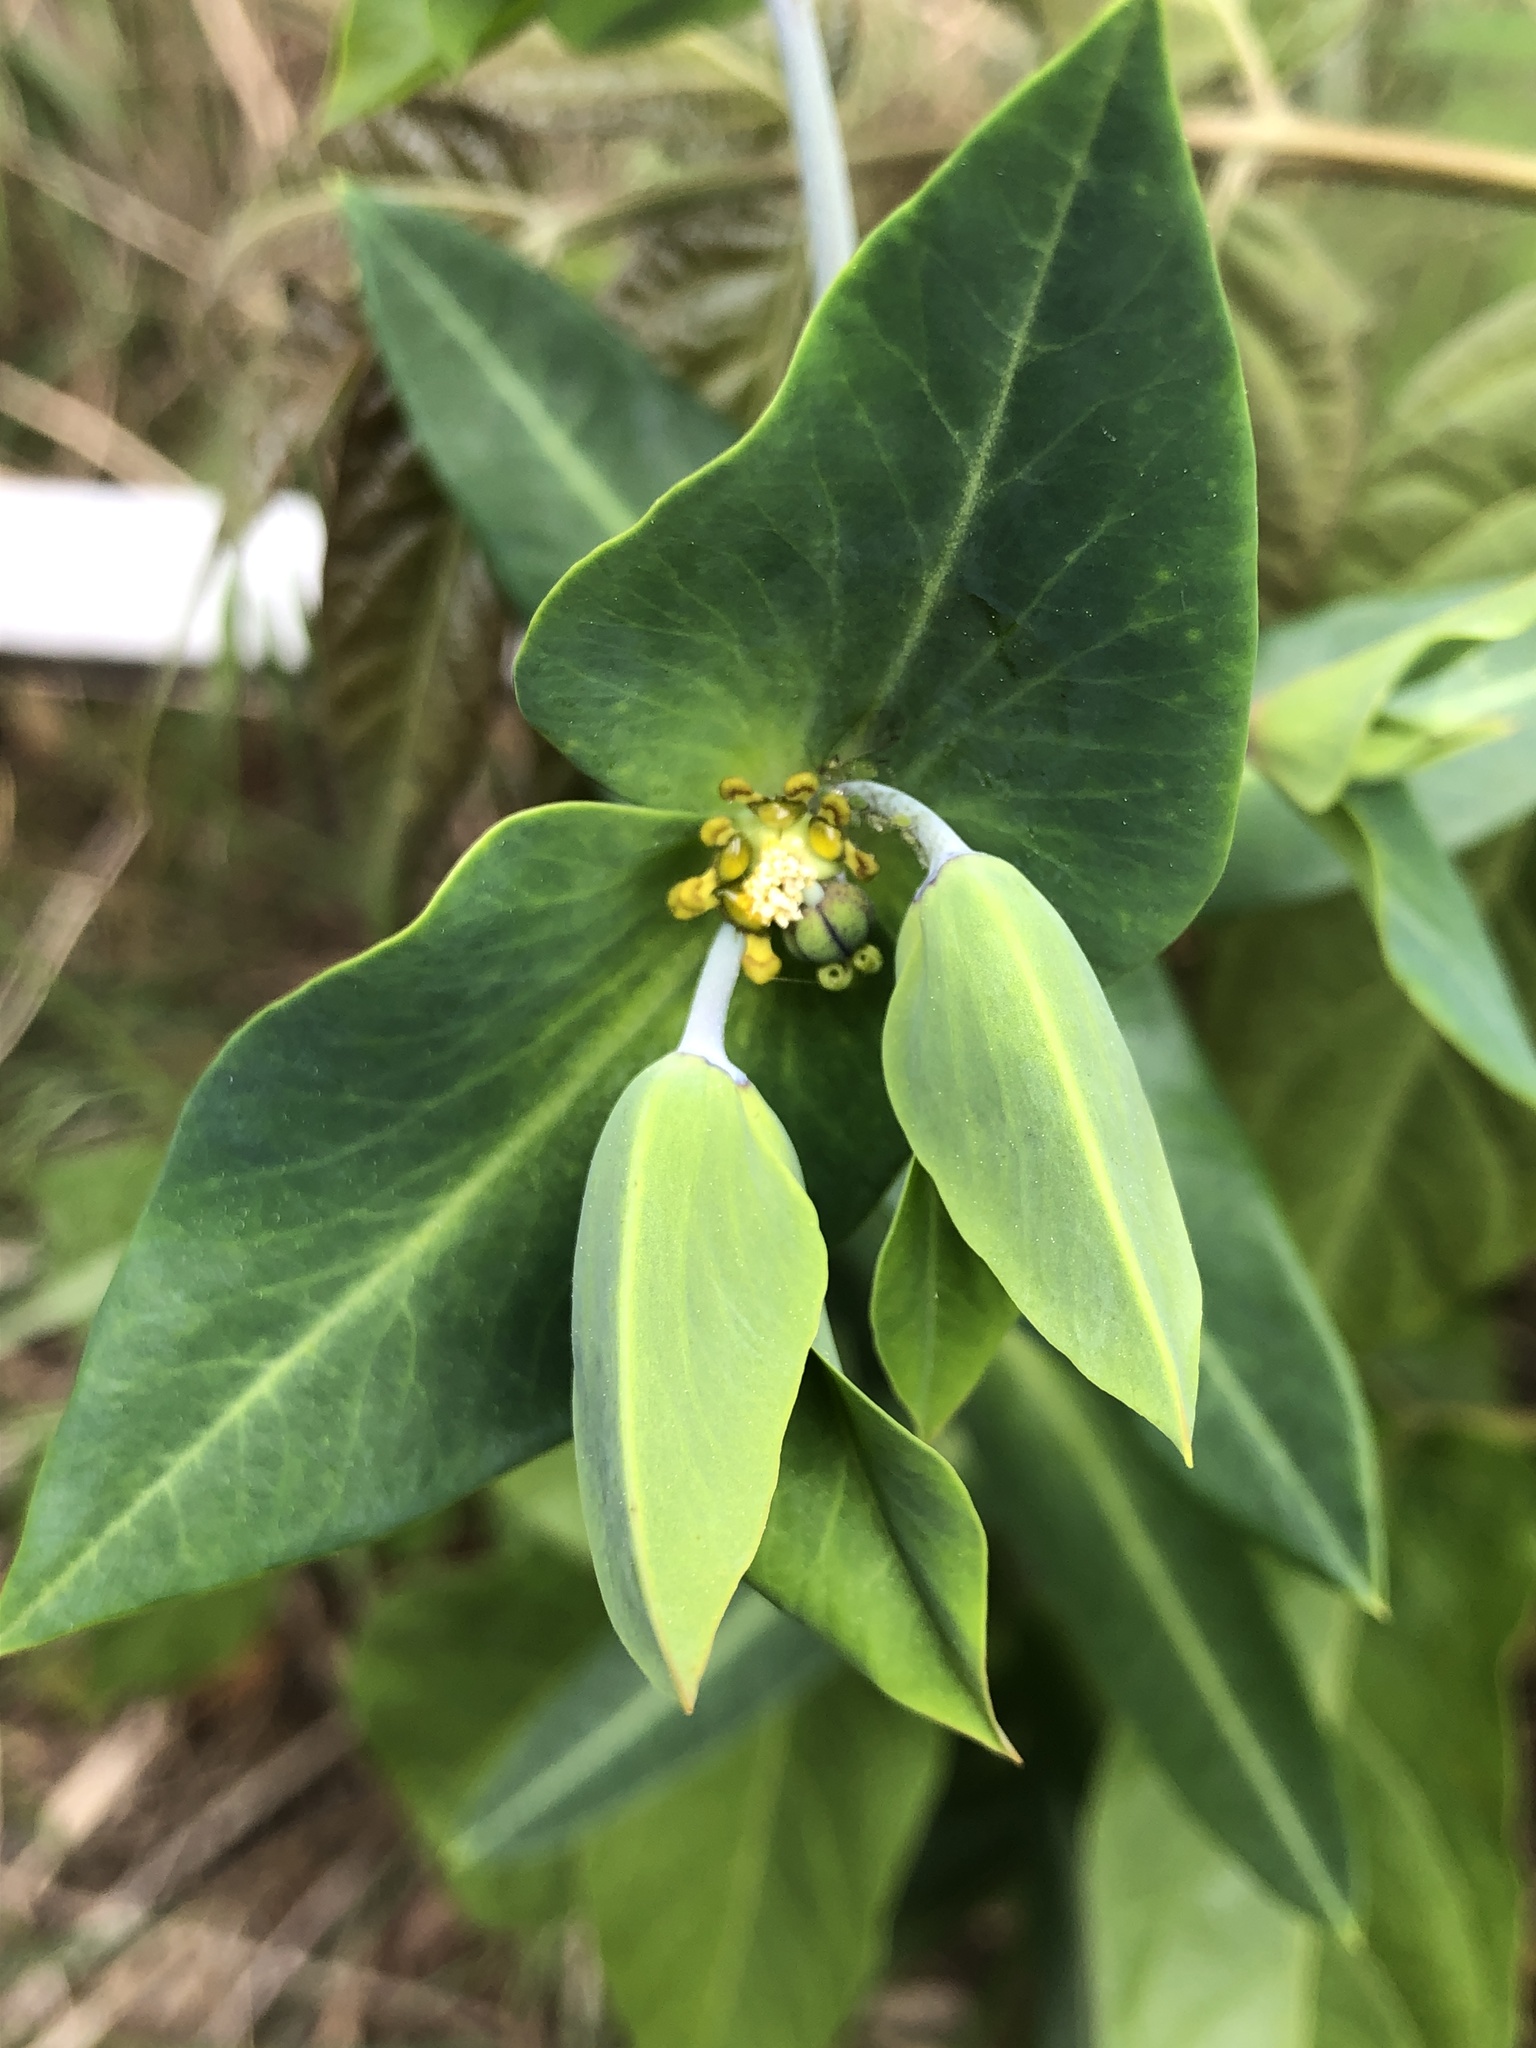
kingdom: Plantae
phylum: Tracheophyta
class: Magnoliopsida
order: Malpighiales
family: Euphorbiaceae
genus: Euphorbia
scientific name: Euphorbia lathyris
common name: Caper spurge
